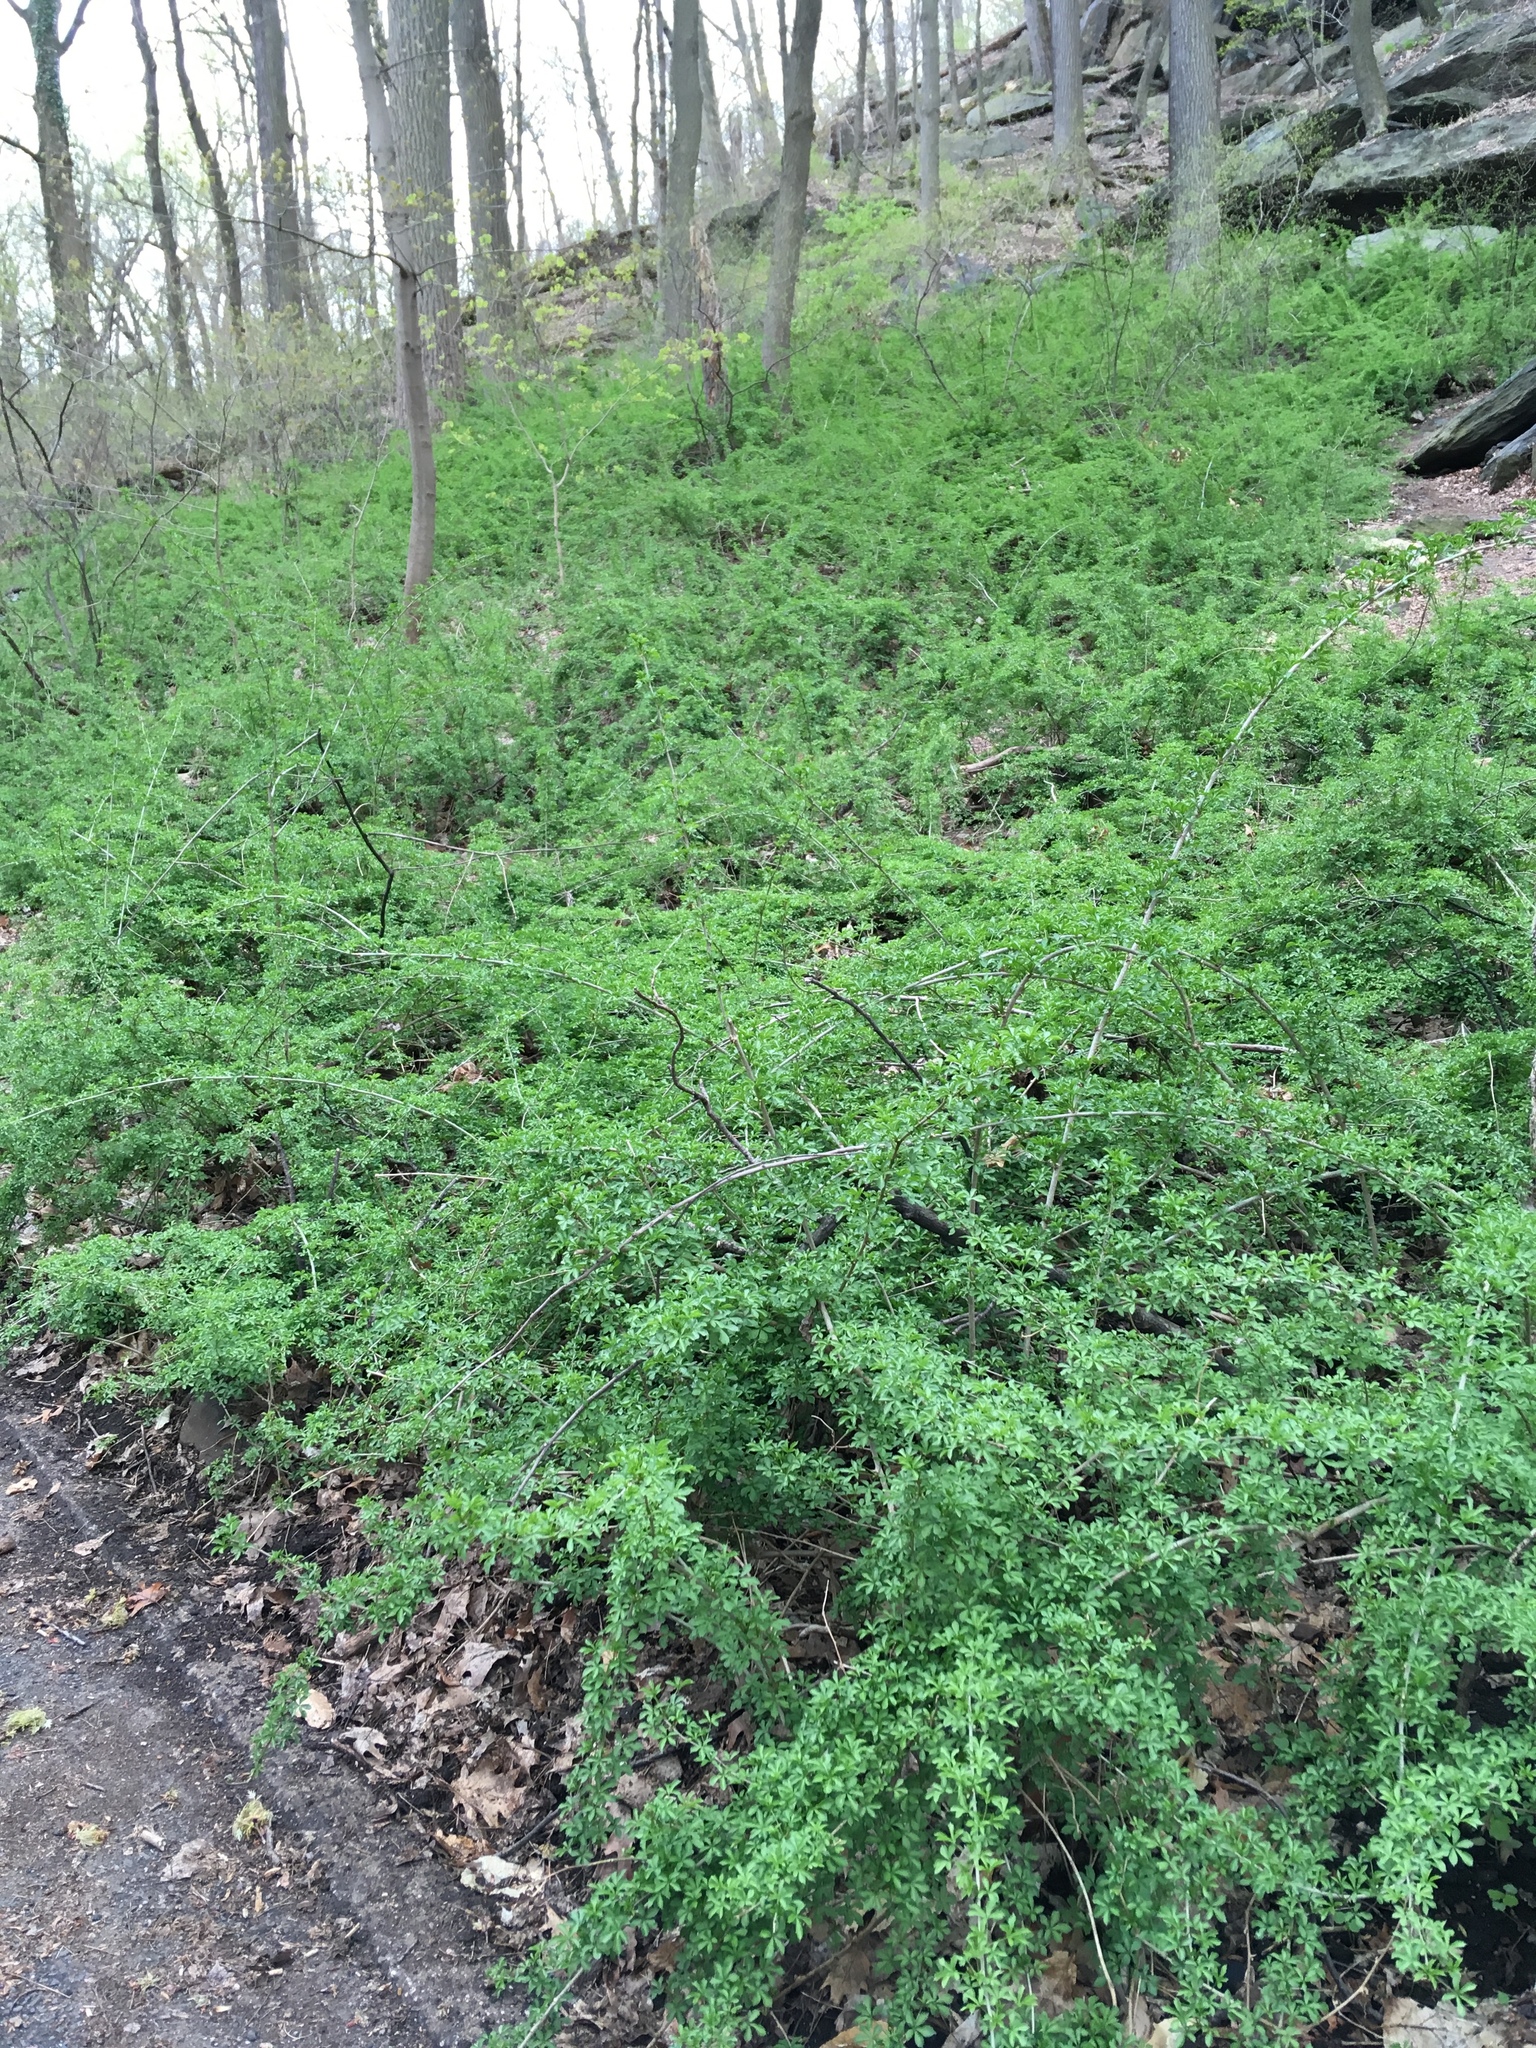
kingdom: Plantae
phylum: Tracheophyta
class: Magnoliopsida
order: Apiales
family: Araliaceae
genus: Eleutherococcus
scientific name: Eleutherococcus sieboldianus
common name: Ginseng
